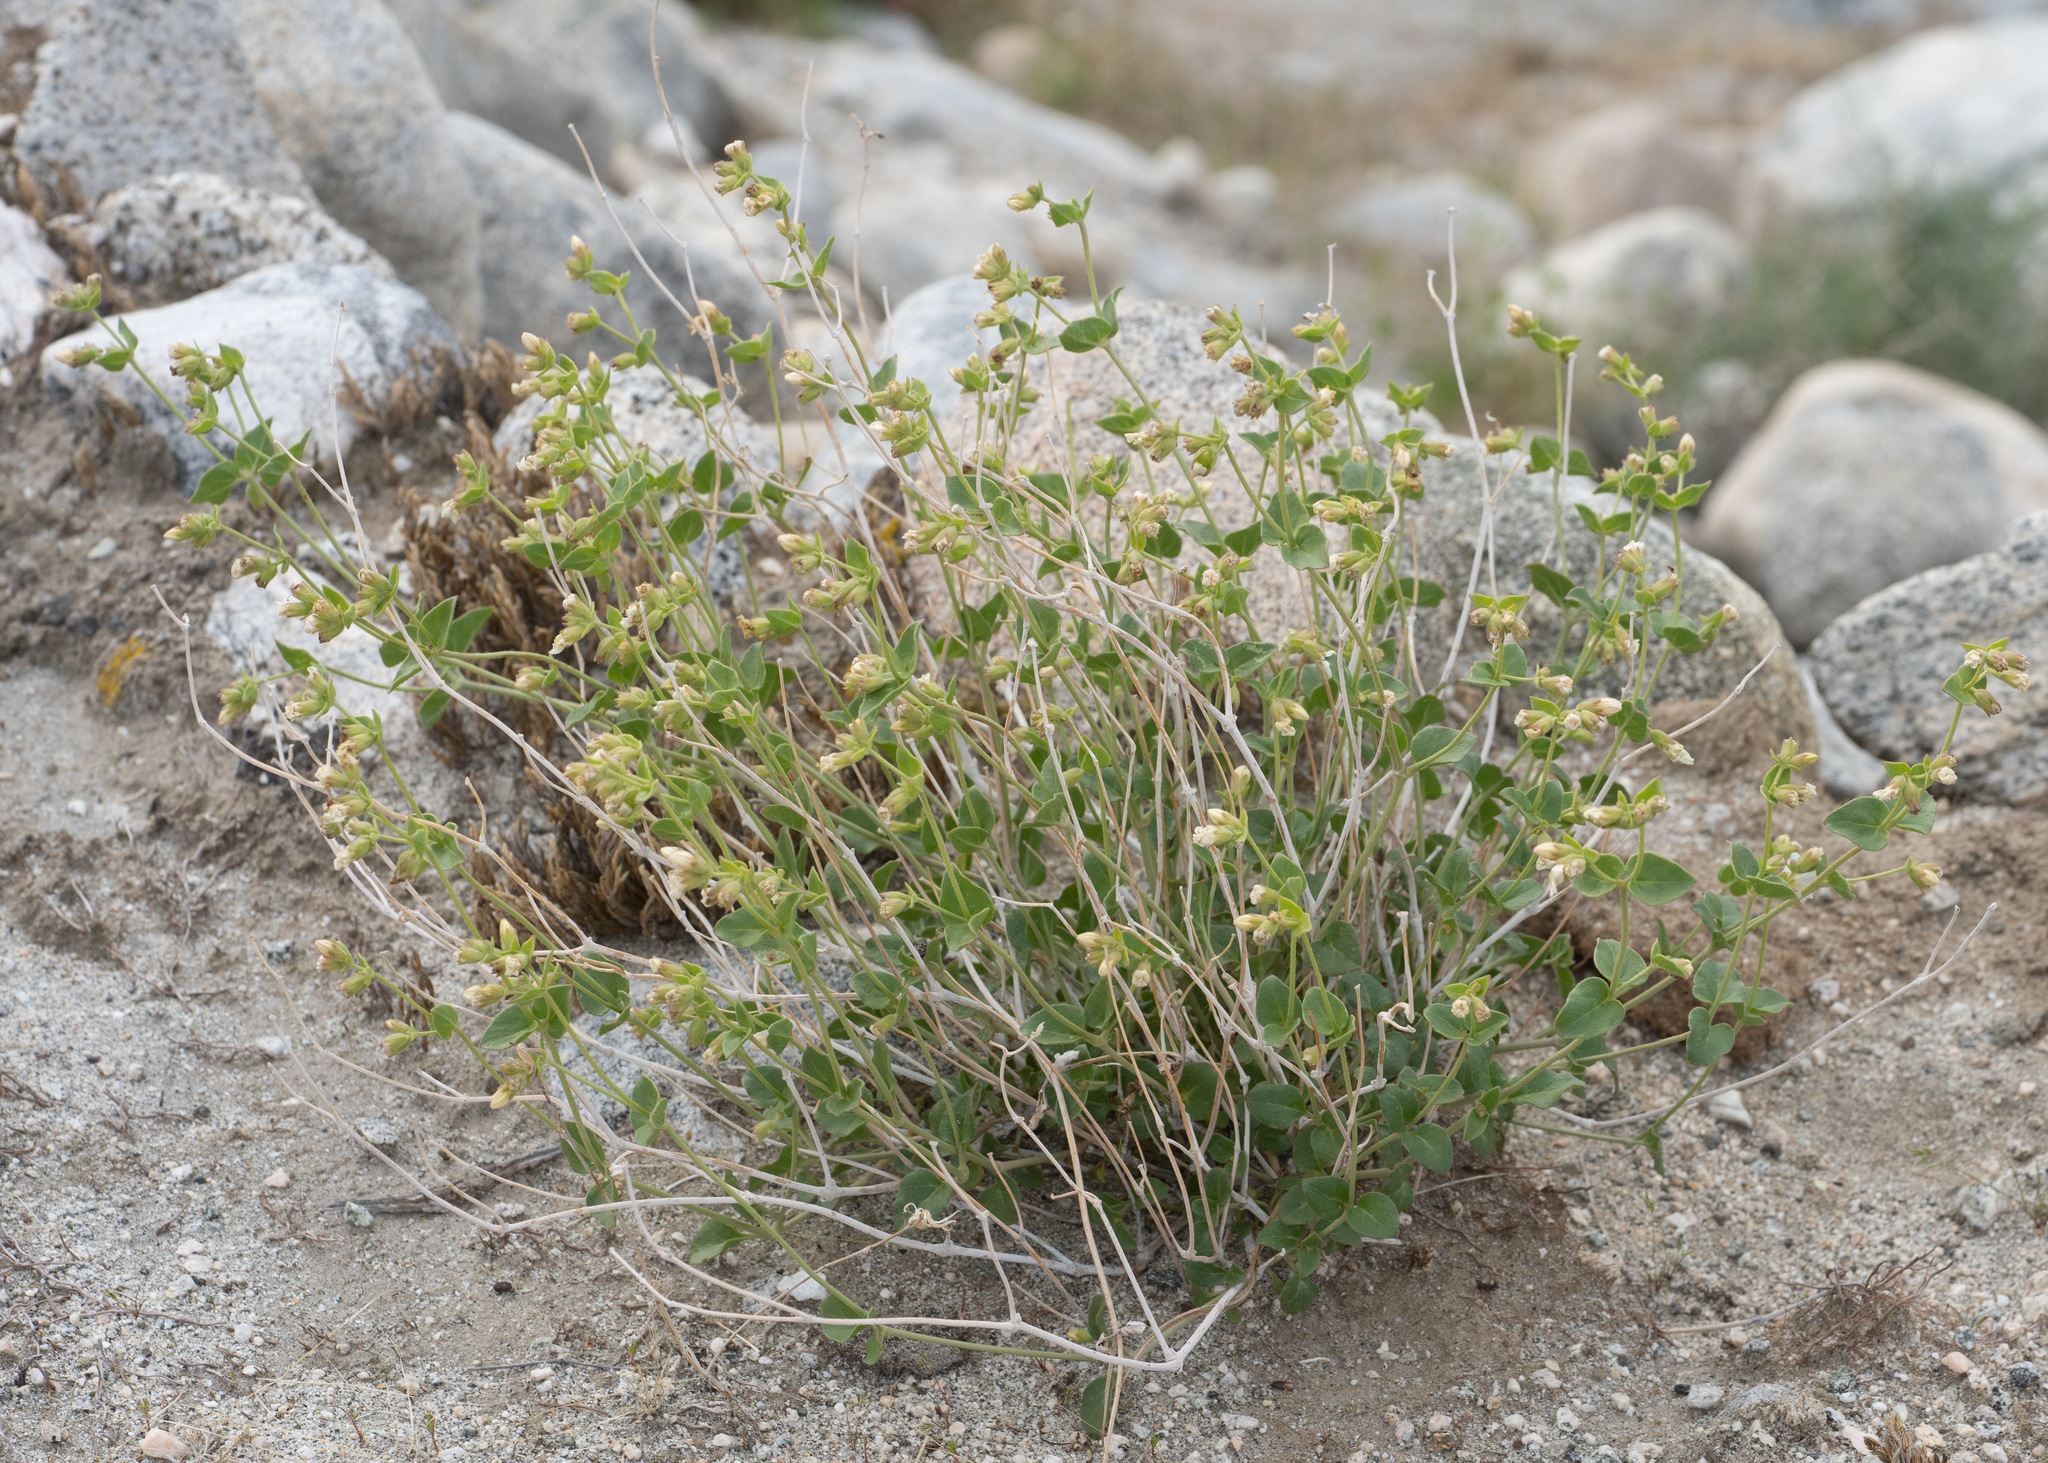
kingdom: Plantae
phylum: Tracheophyta
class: Magnoliopsida
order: Caryophyllales
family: Nyctaginaceae
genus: Mirabilis
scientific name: Mirabilis laevis
